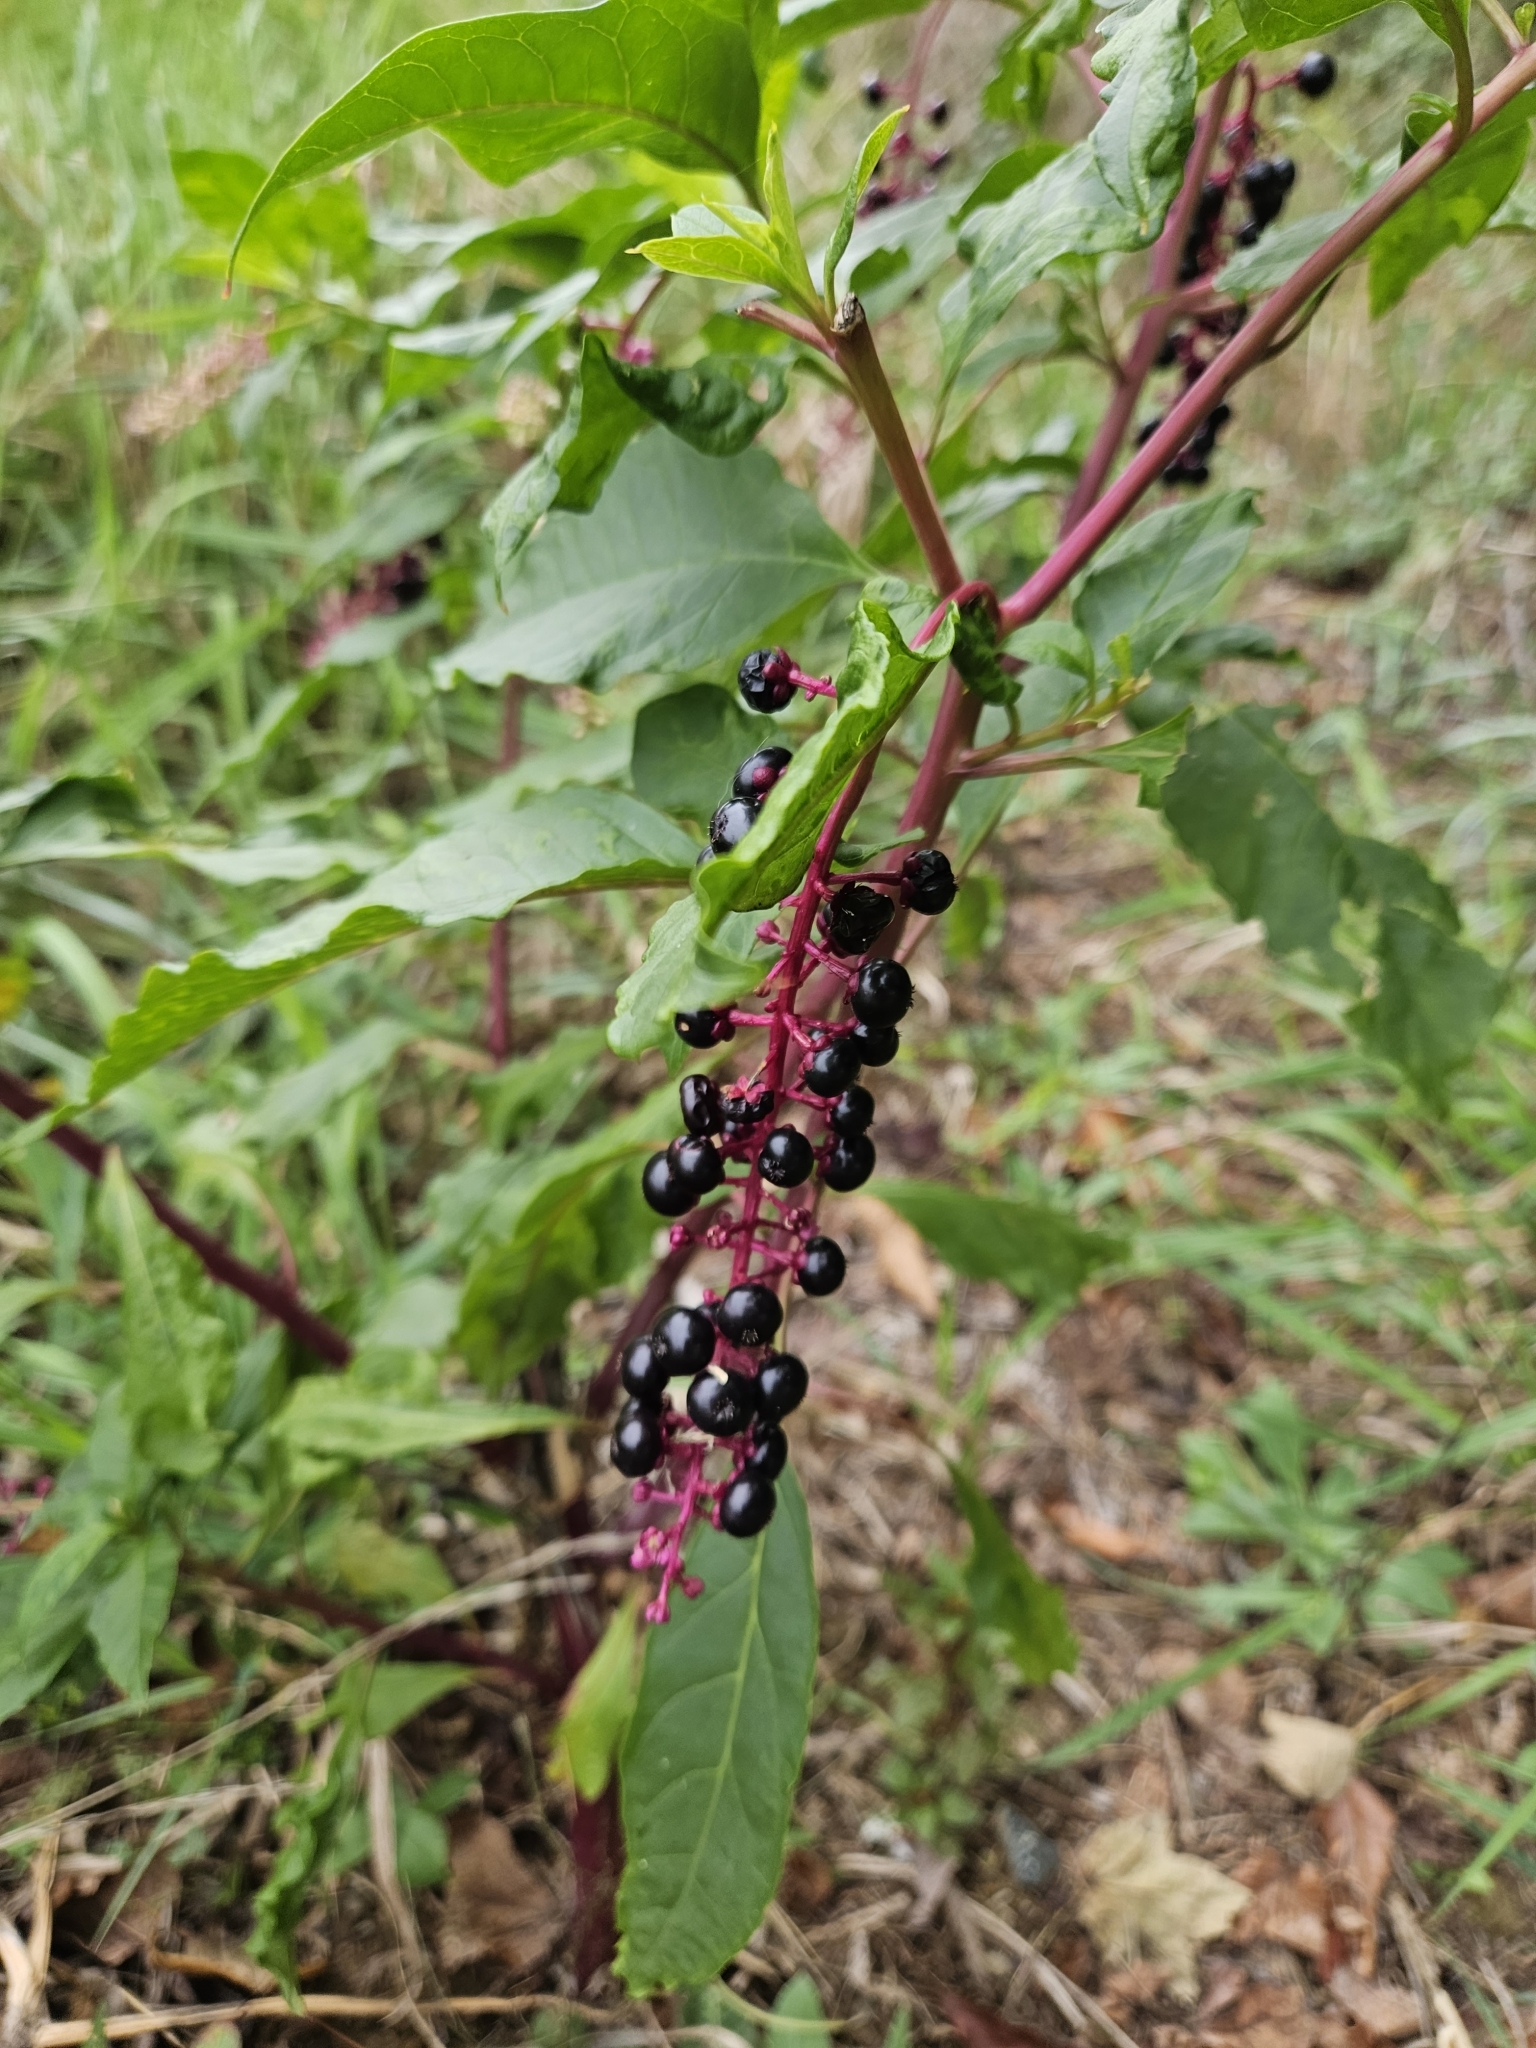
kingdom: Plantae
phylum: Tracheophyta
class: Magnoliopsida
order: Caryophyllales
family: Phytolaccaceae
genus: Phytolacca
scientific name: Phytolacca americana
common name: American pokeweed
